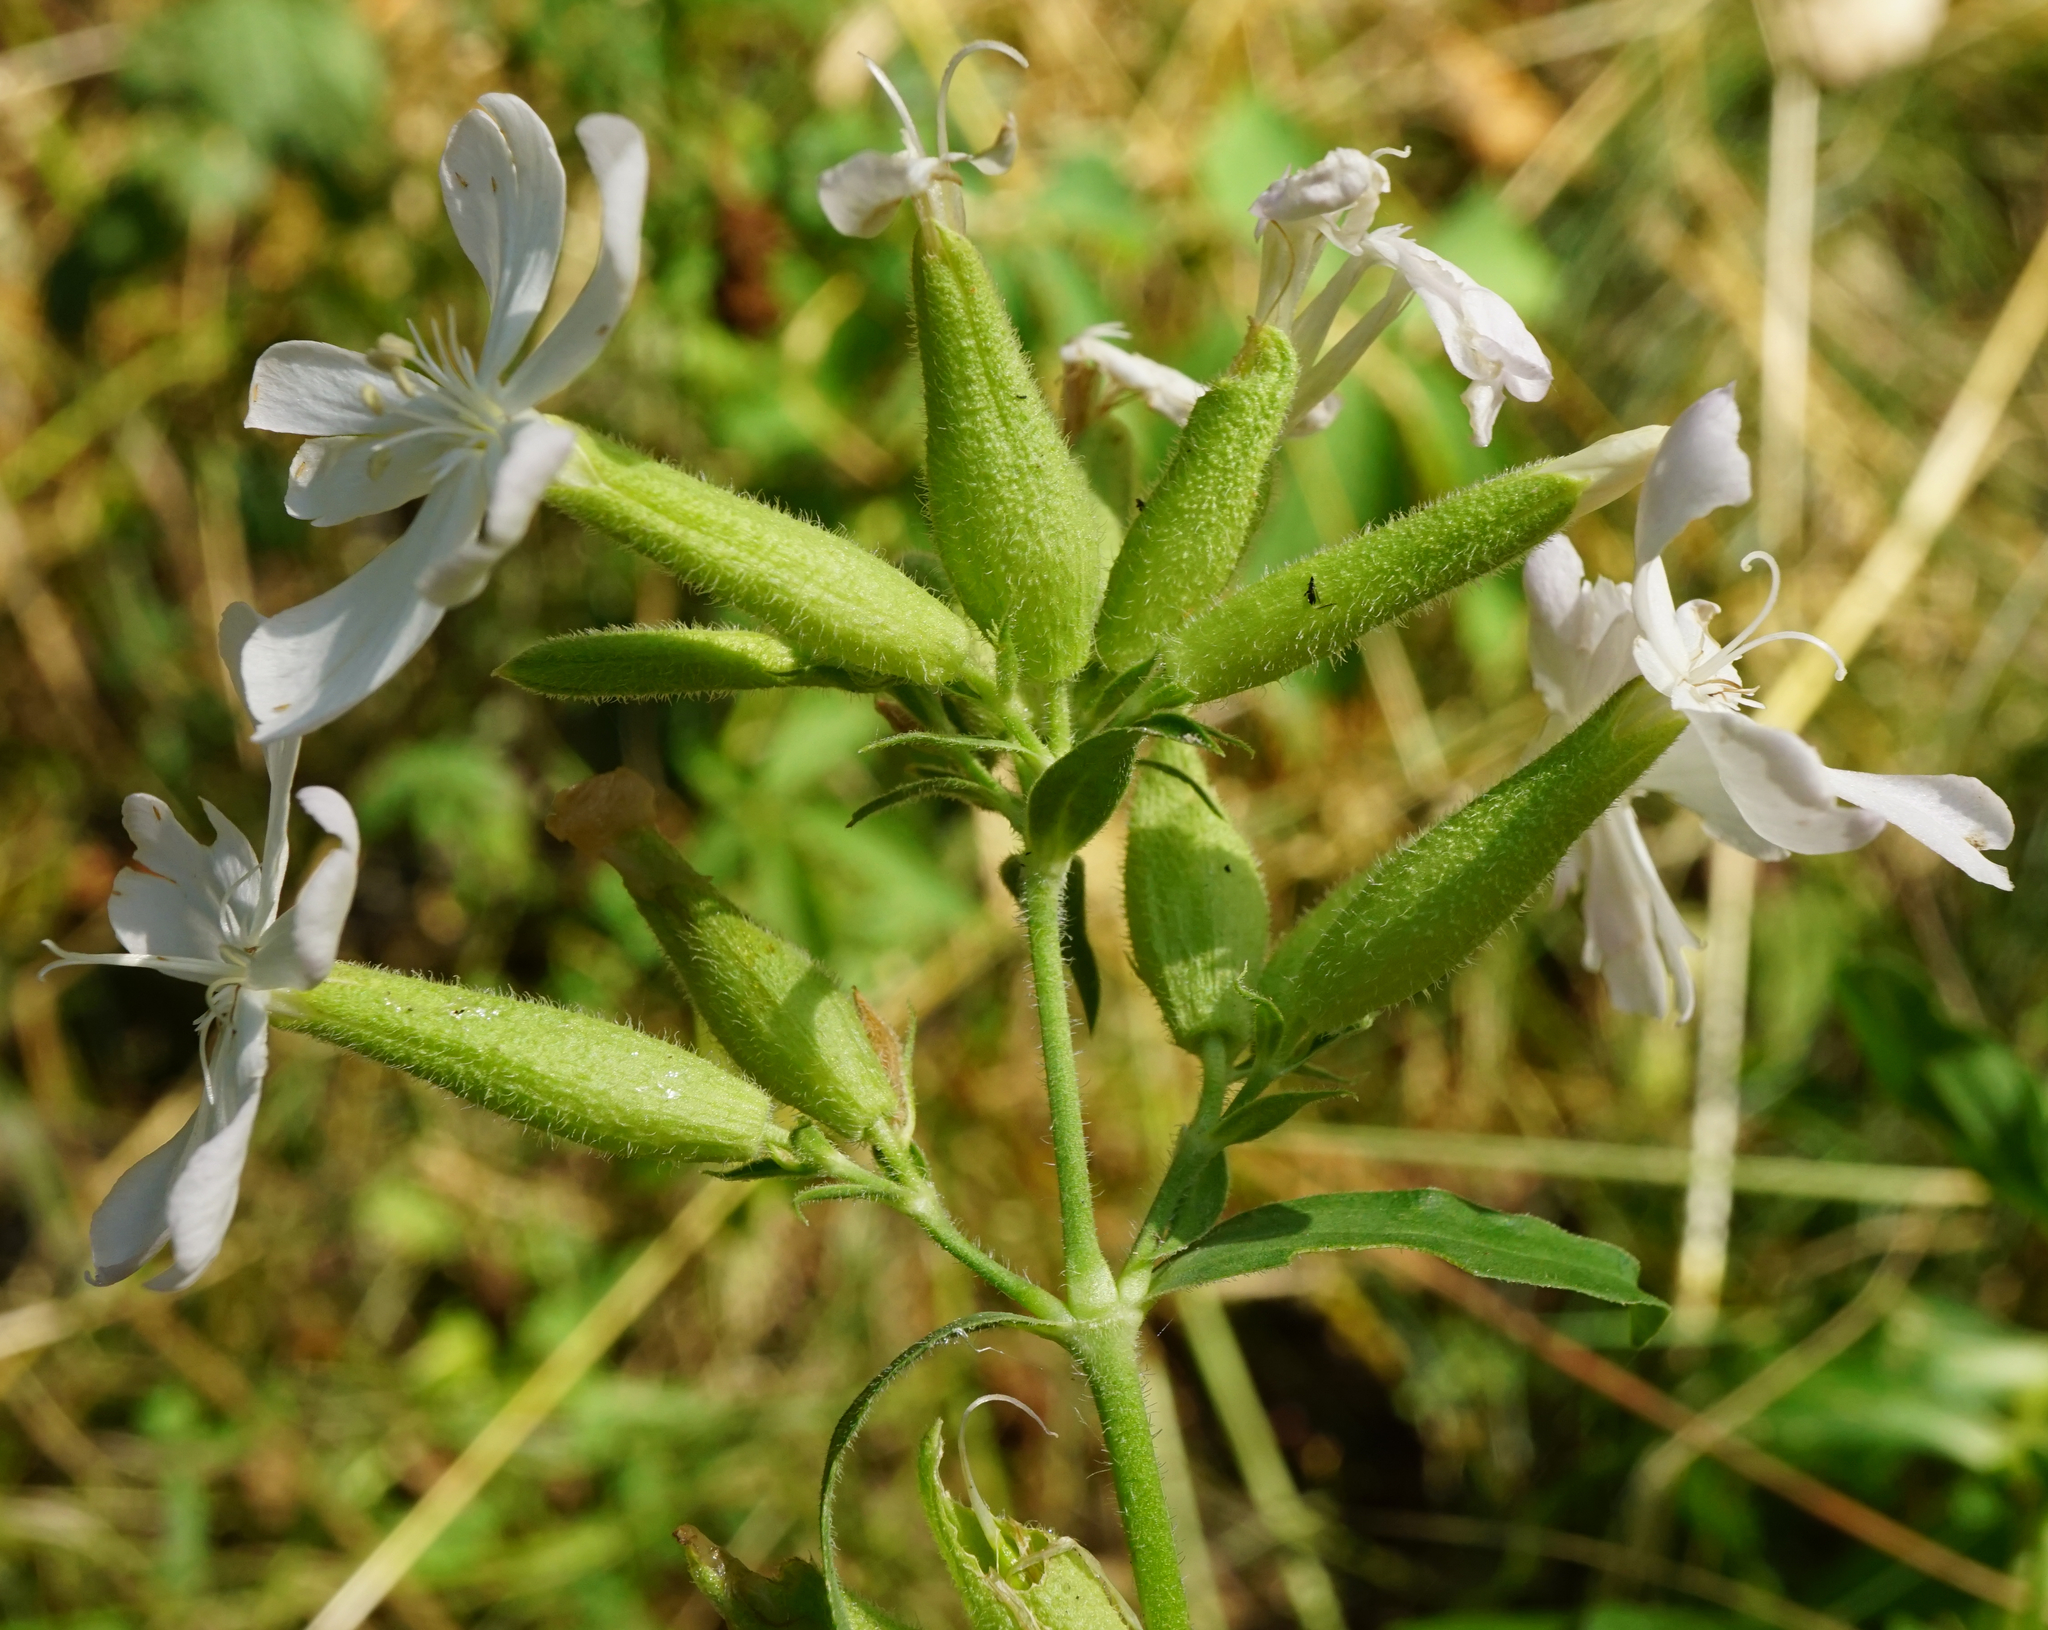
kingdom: Plantae
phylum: Tracheophyta
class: Magnoliopsida
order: Caryophyllales
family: Caryophyllaceae
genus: Saponaria
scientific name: Saponaria officinalis
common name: Soapwort
